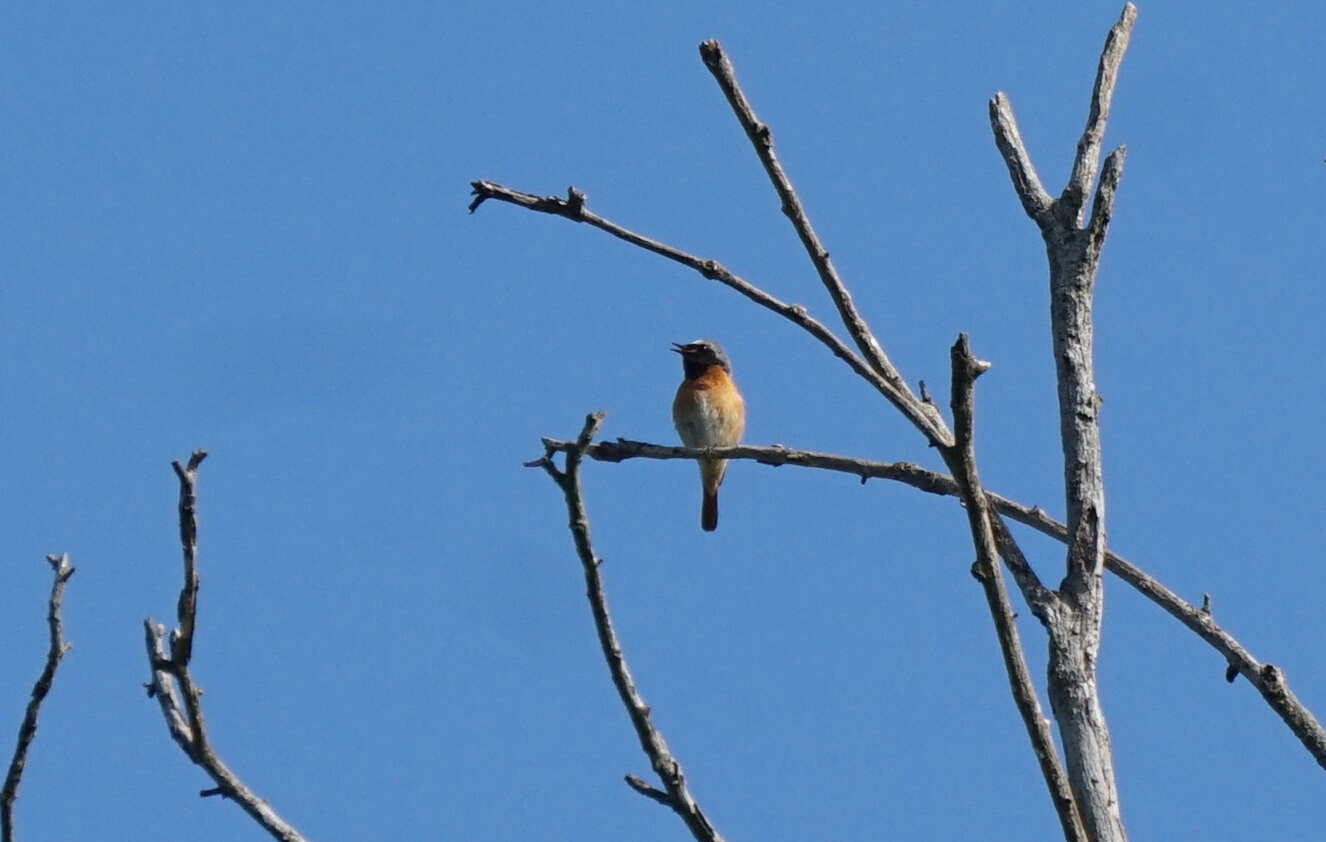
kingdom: Animalia
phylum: Chordata
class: Aves
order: Passeriformes
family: Muscicapidae
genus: Phoenicurus
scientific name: Phoenicurus phoenicurus
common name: Common redstart
